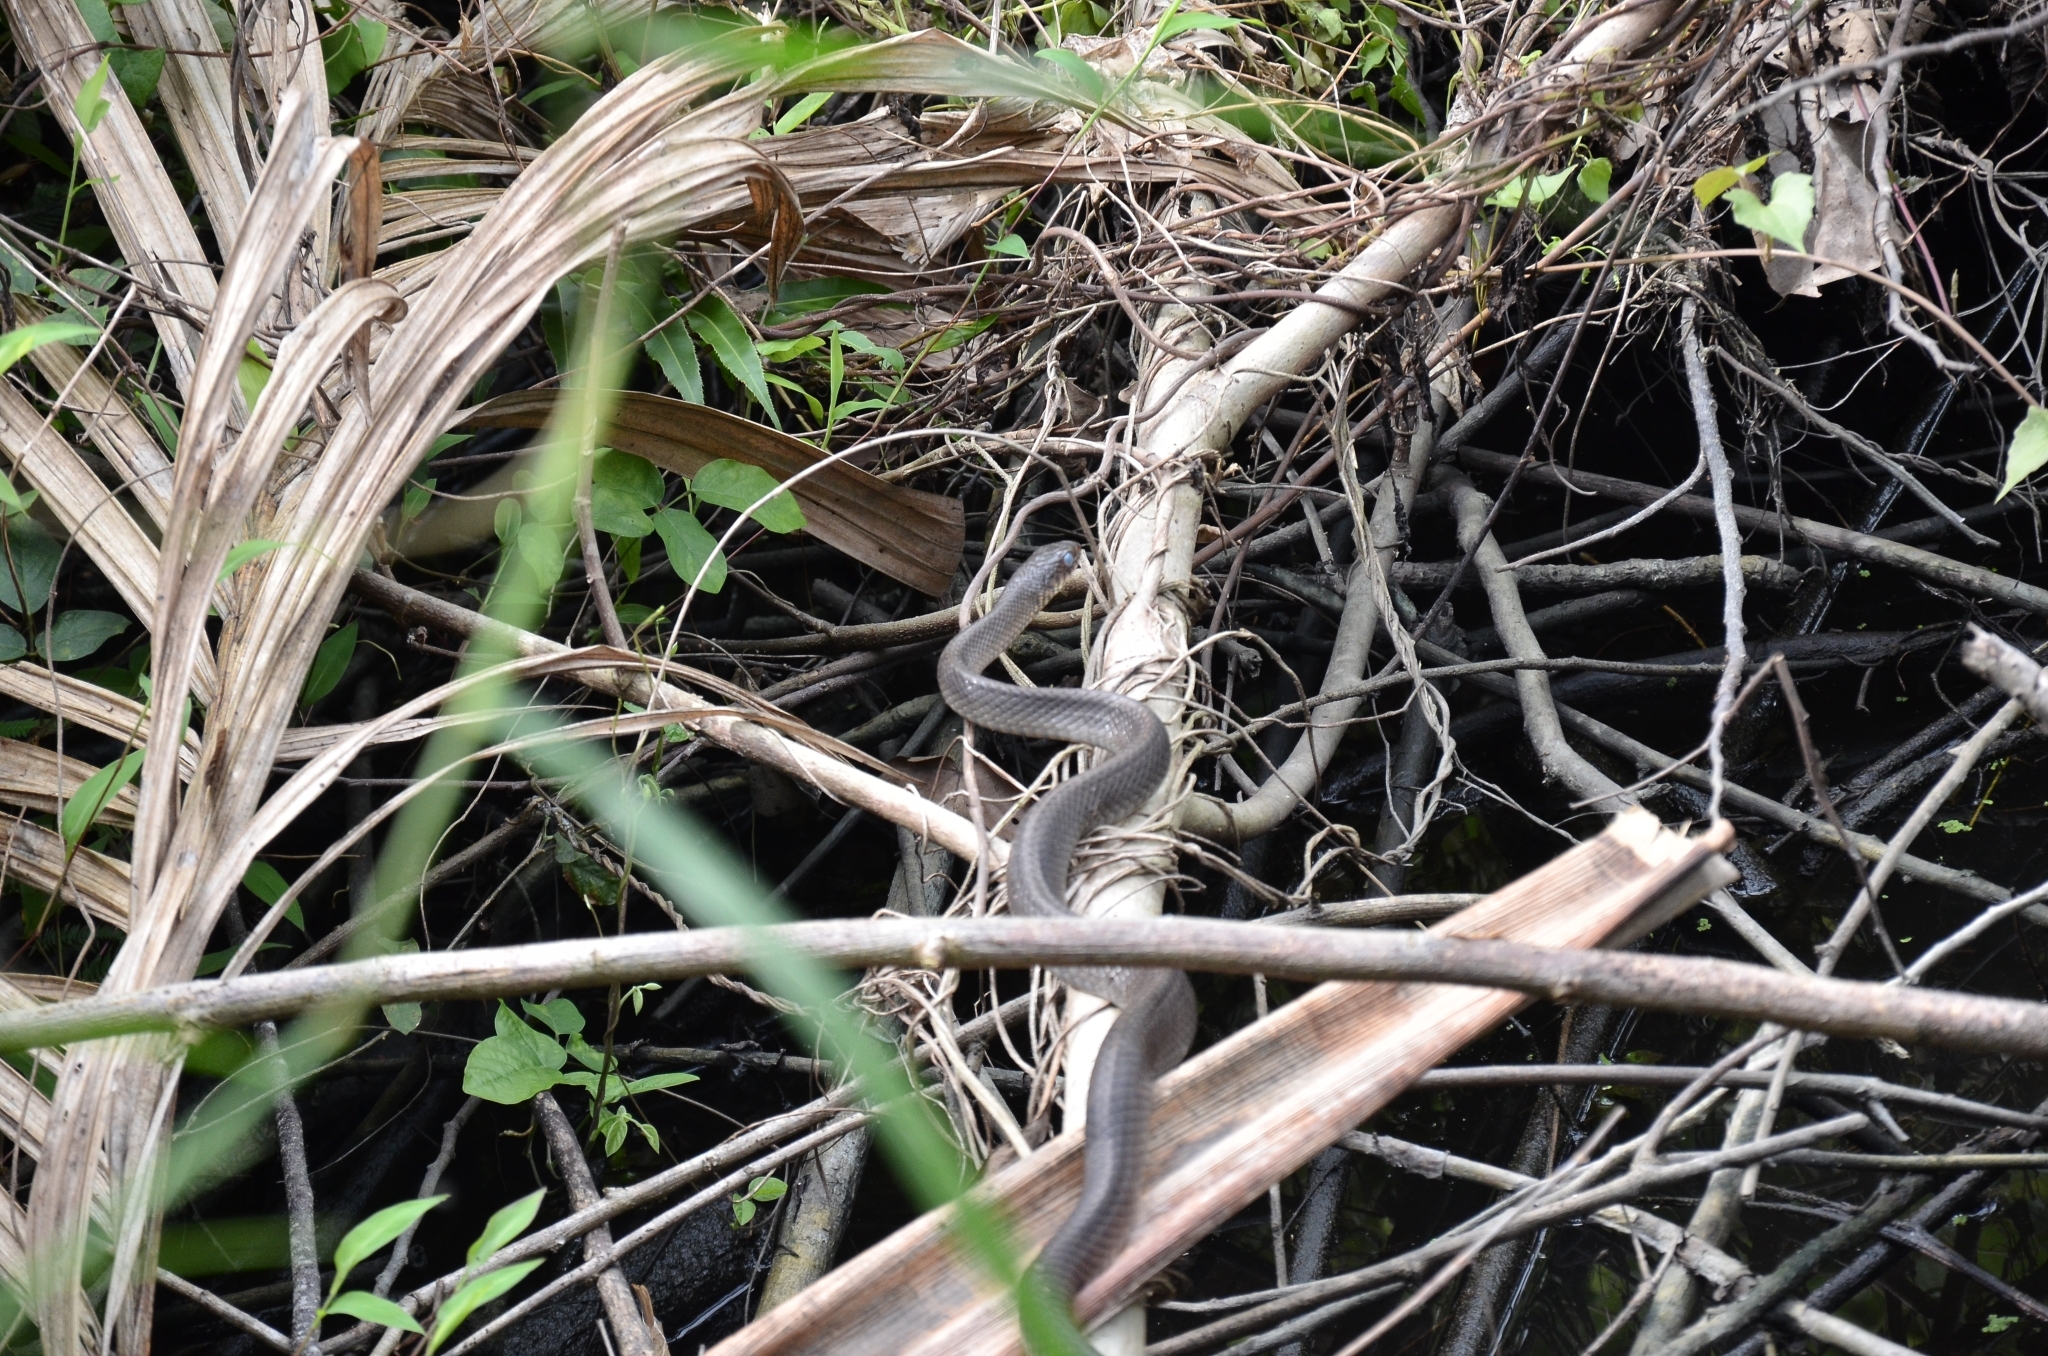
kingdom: Animalia
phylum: Chordata
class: Squamata
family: Colubridae
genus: Ptyas
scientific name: Ptyas mucosa
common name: Oriental ratsnake
